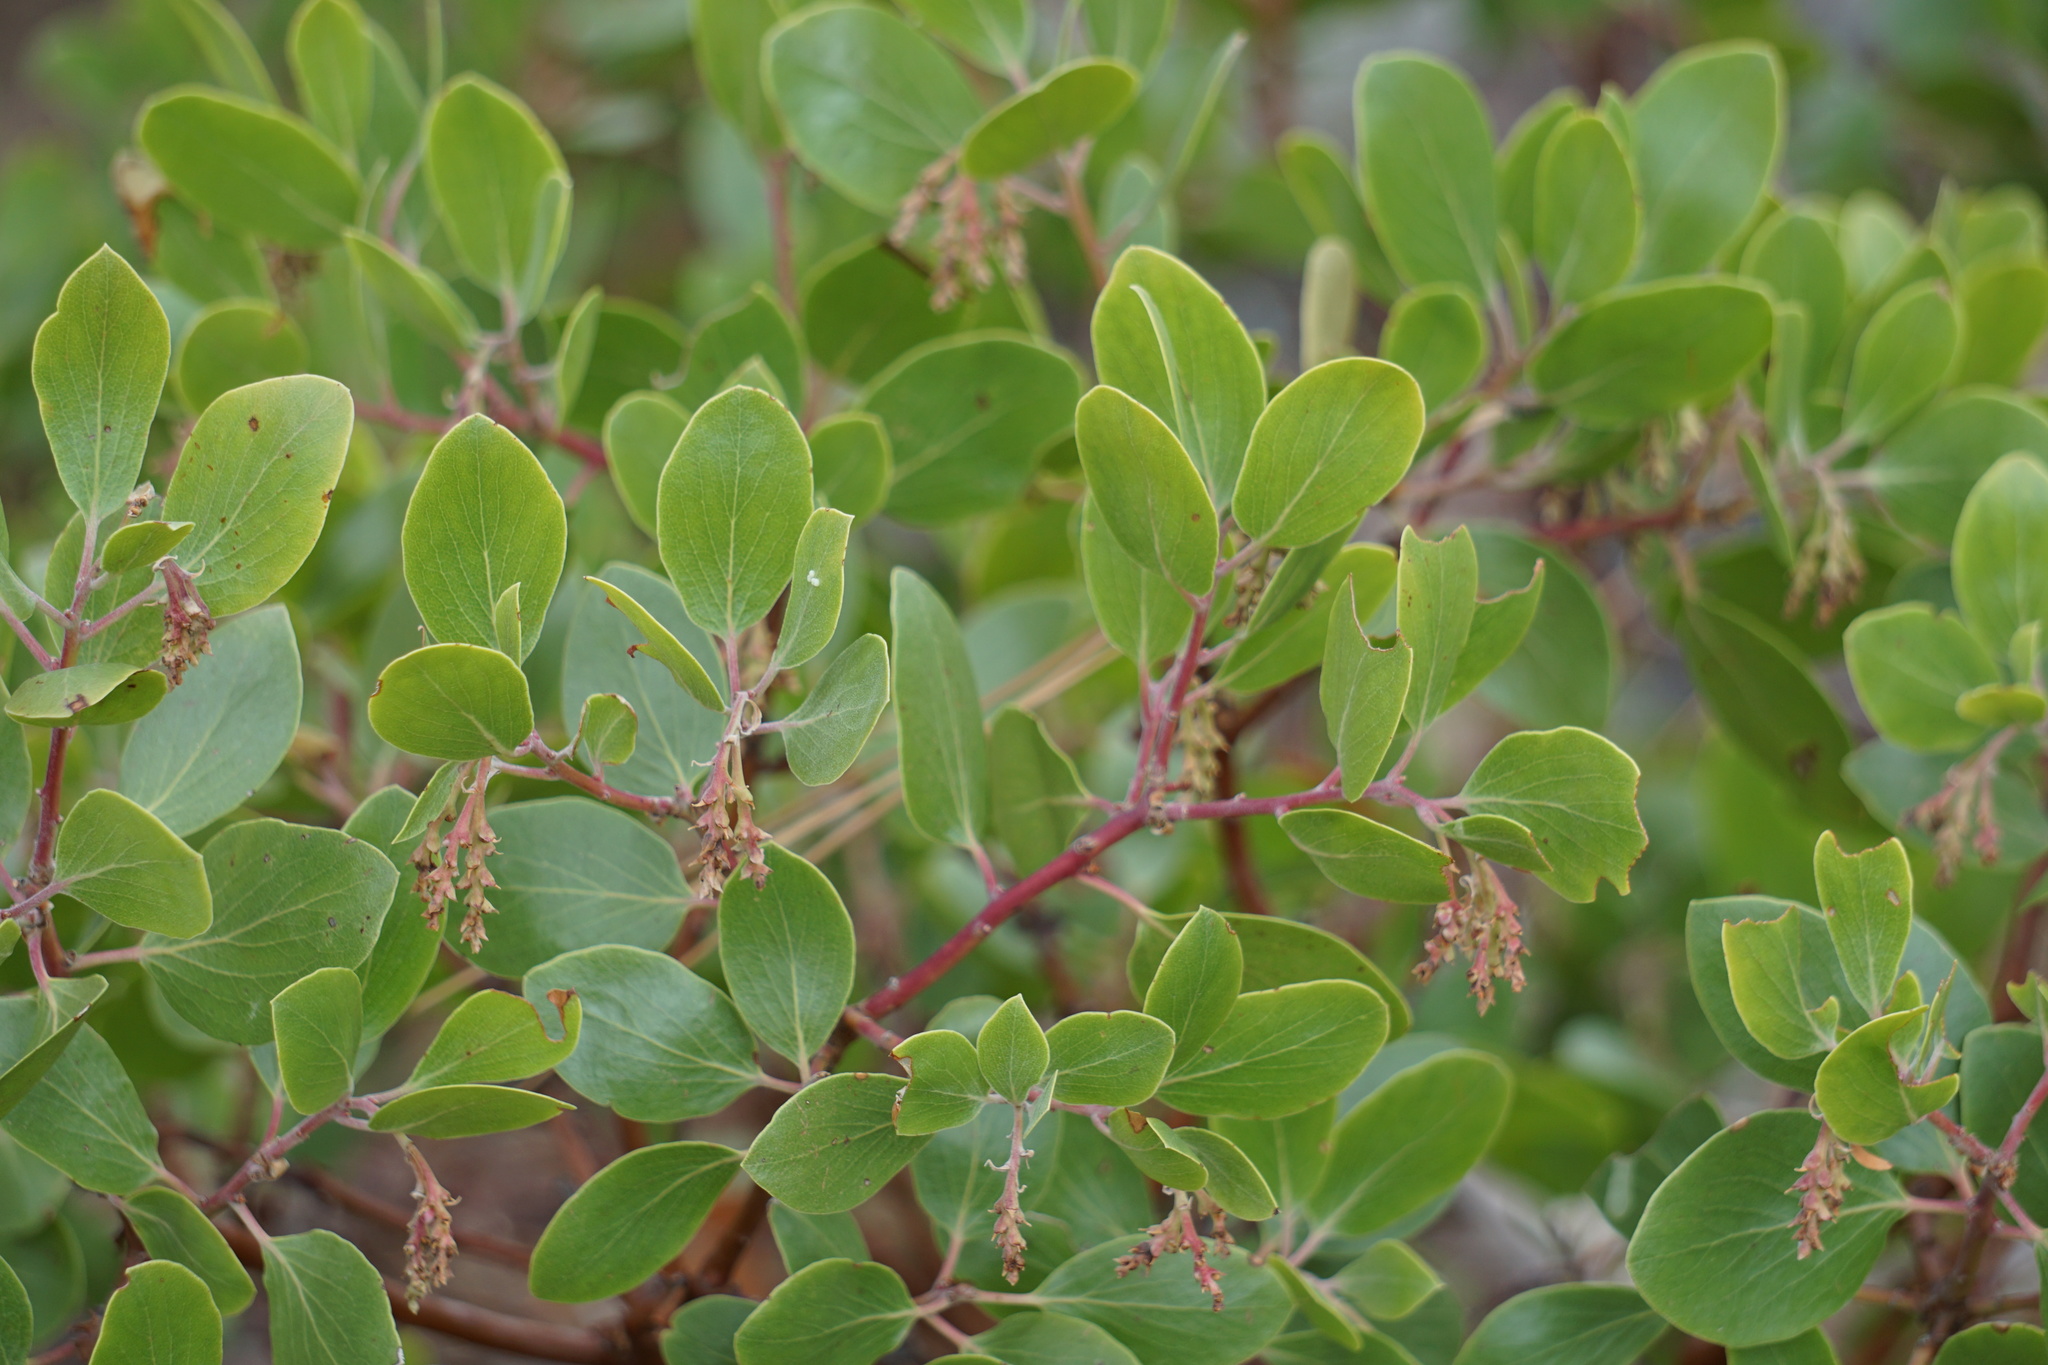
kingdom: Plantae
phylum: Tracheophyta
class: Magnoliopsida
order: Ericales
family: Ericaceae
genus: Arctostaphylos
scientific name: Arctostaphylos patula
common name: Green-leaf manzanita
